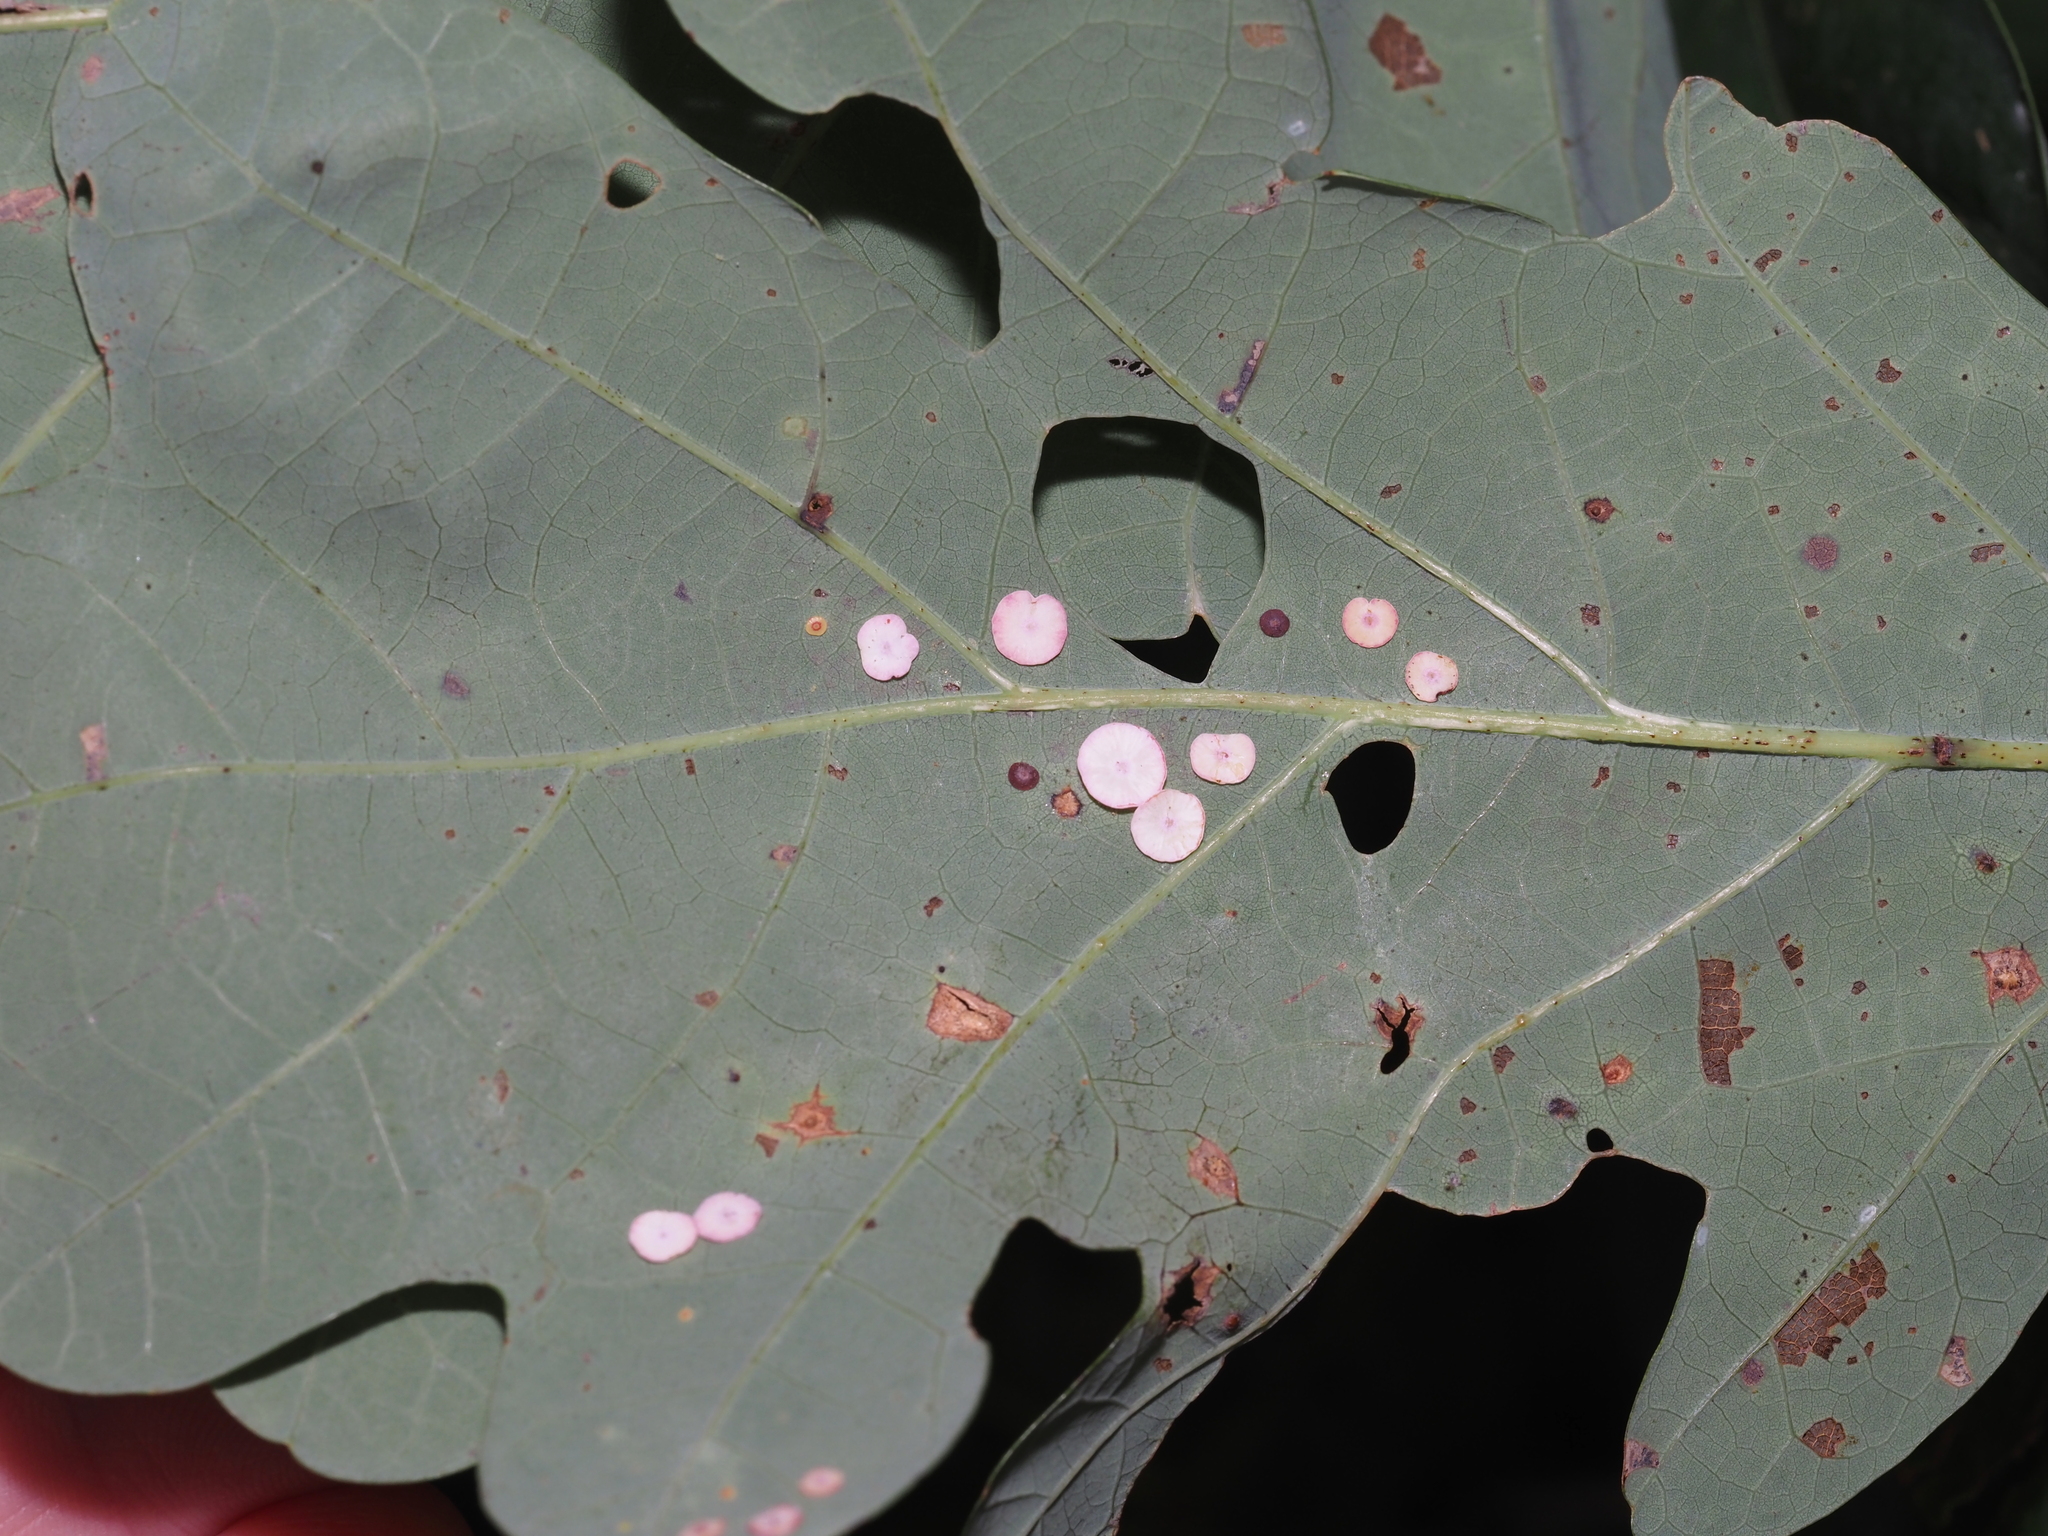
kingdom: Animalia
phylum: Arthropoda
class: Insecta
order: Hymenoptera
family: Cynipidae
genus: Phylloteras
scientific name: Phylloteras poculum
